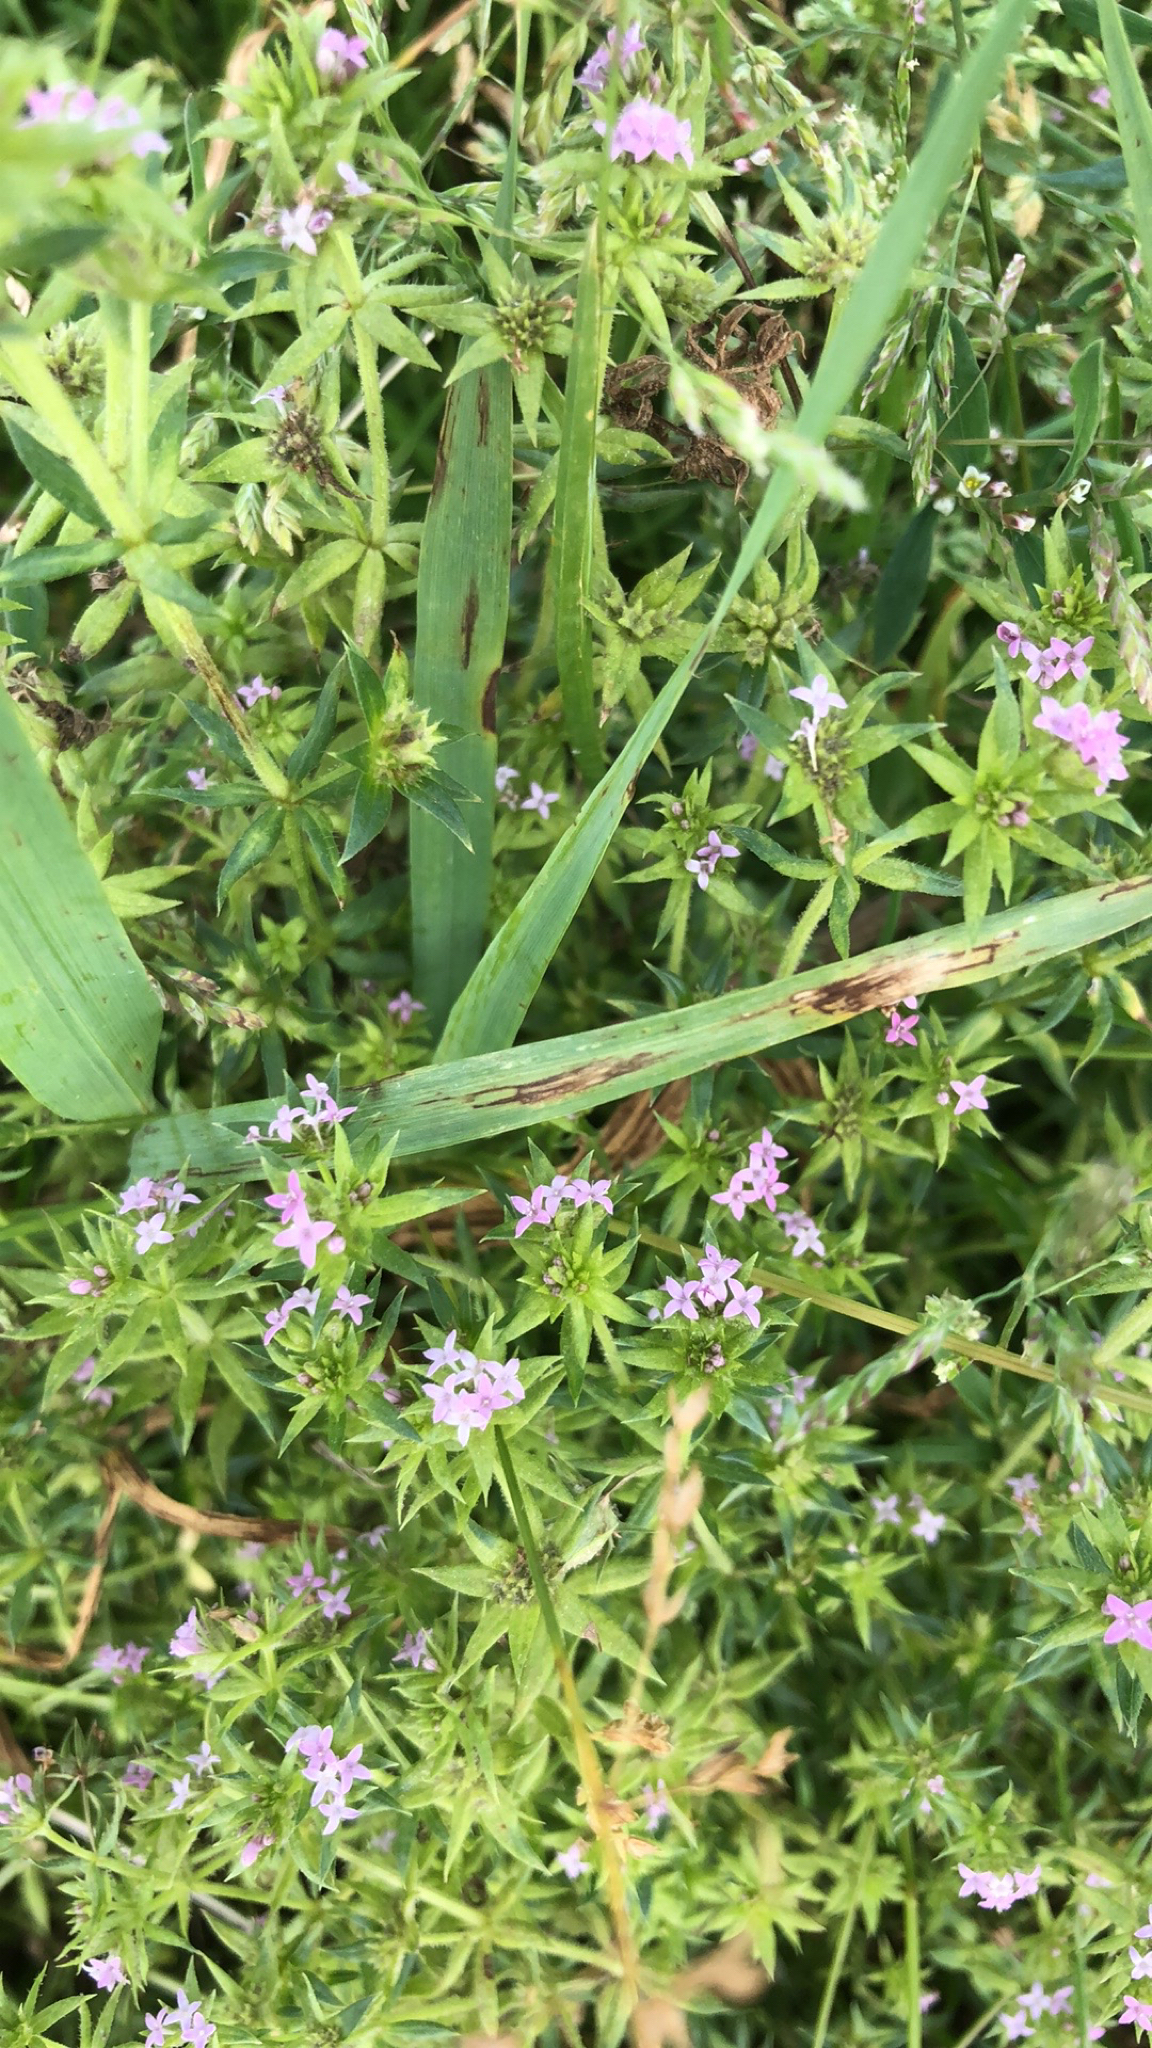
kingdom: Plantae
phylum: Tracheophyta
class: Magnoliopsida
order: Gentianales
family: Rubiaceae
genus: Sherardia
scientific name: Sherardia arvensis
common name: Field madder
